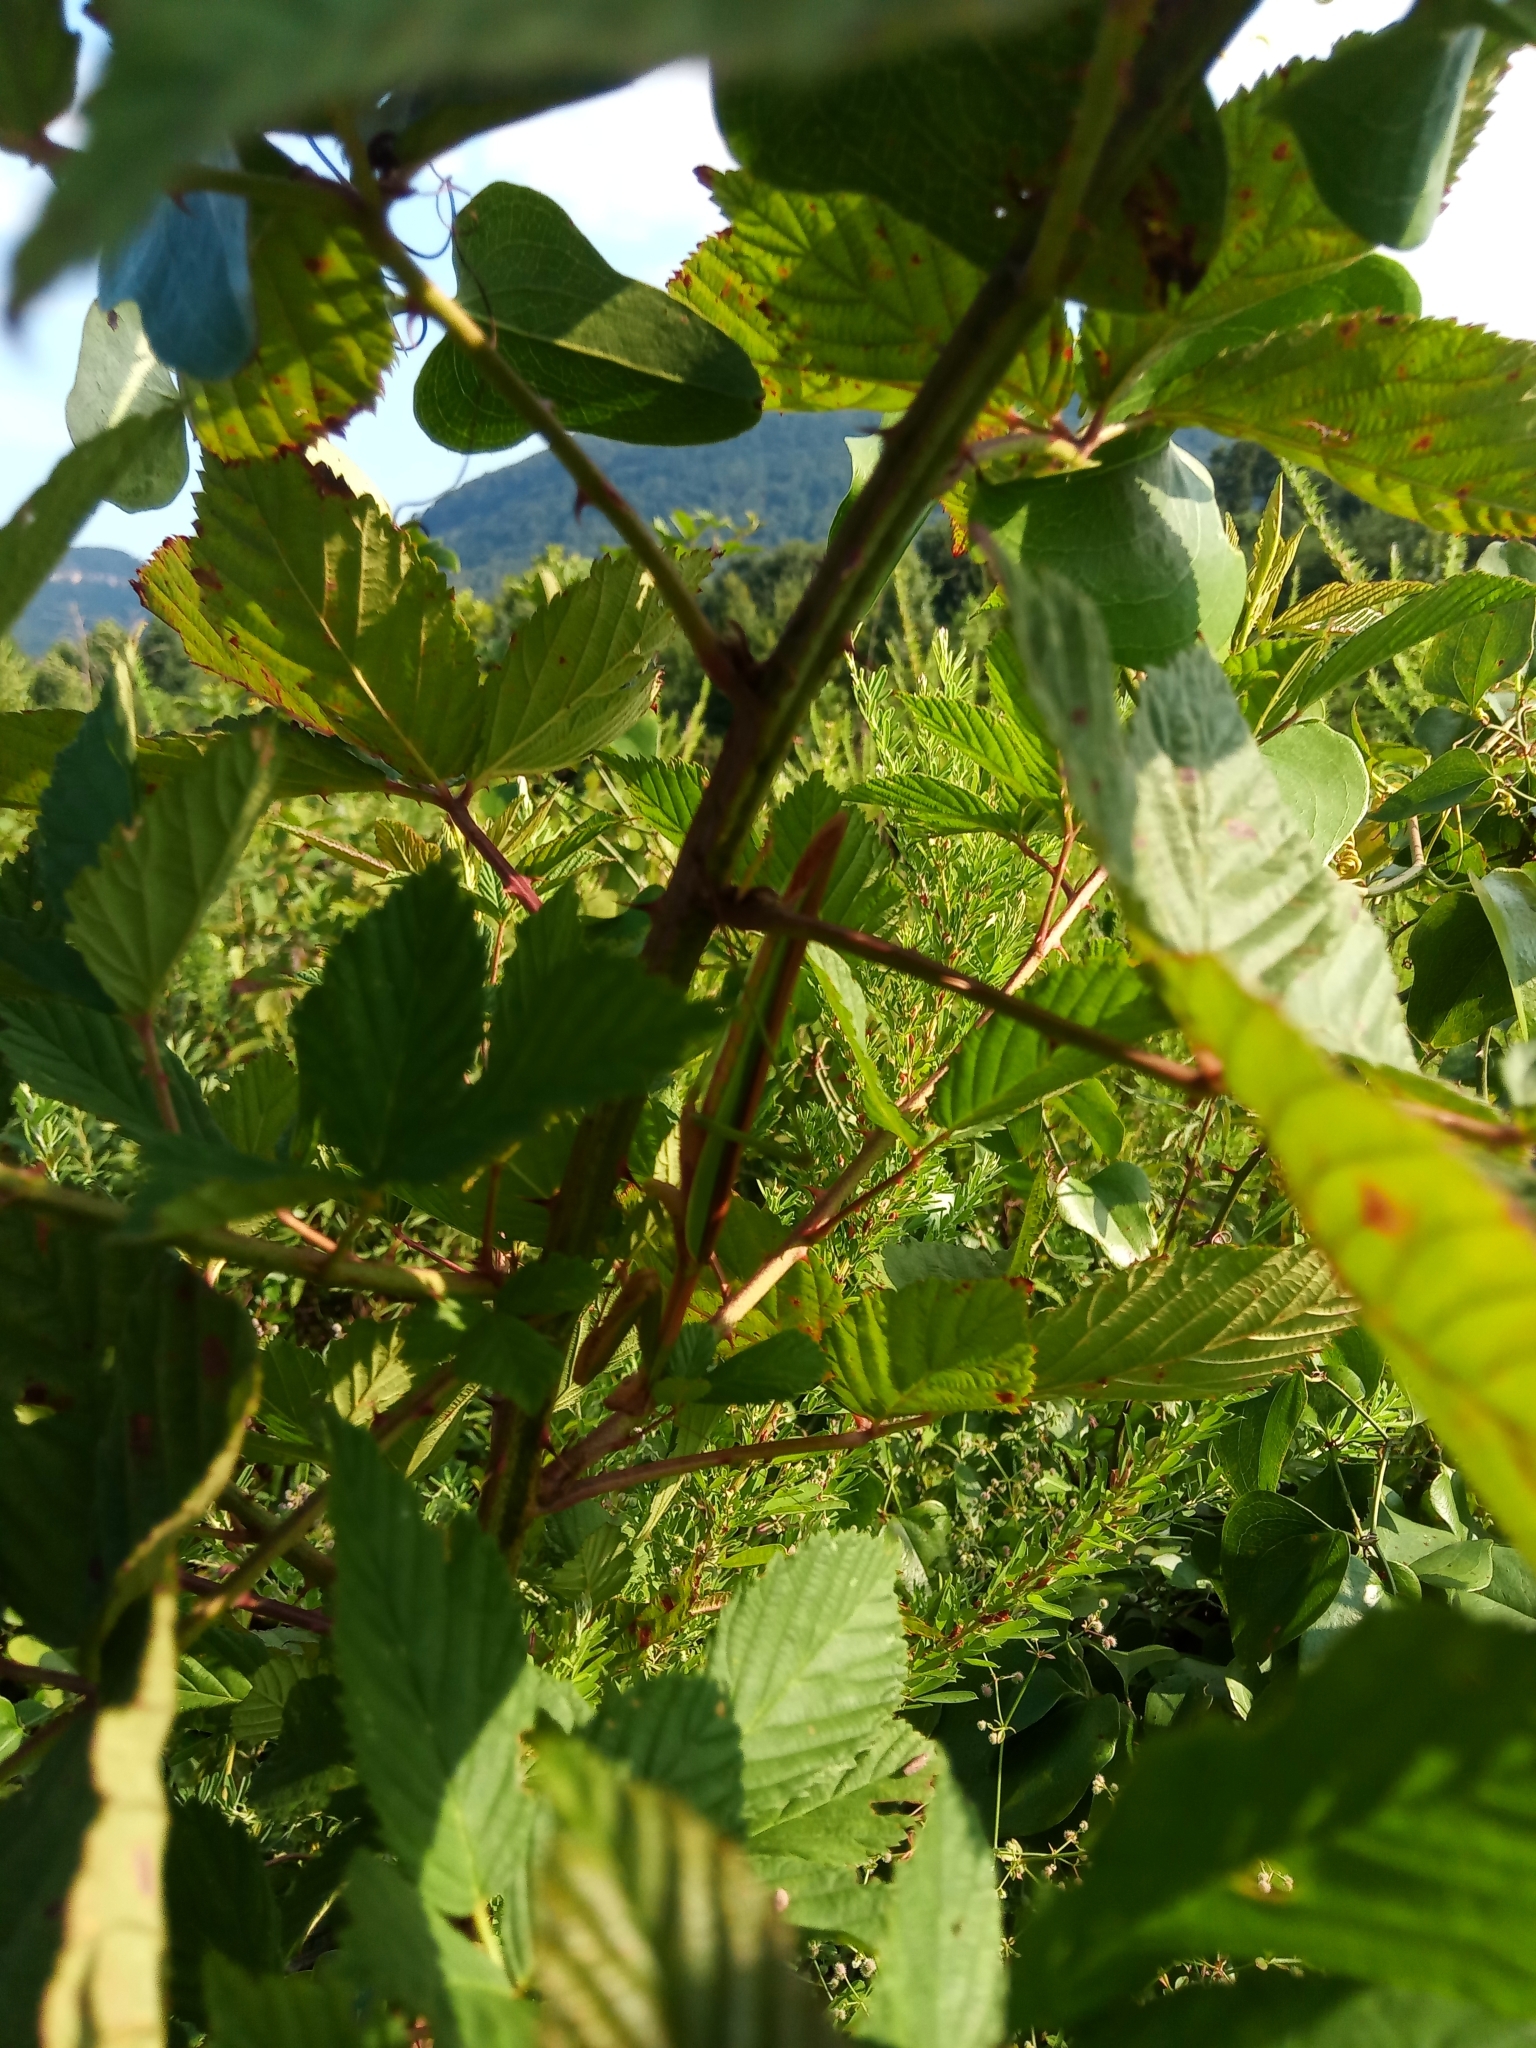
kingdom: Animalia
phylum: Arthropoda
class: Insecta
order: Mantodea
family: Mantidae
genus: Tenodera
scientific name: Tenodera sinensis
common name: Chinese mantis
